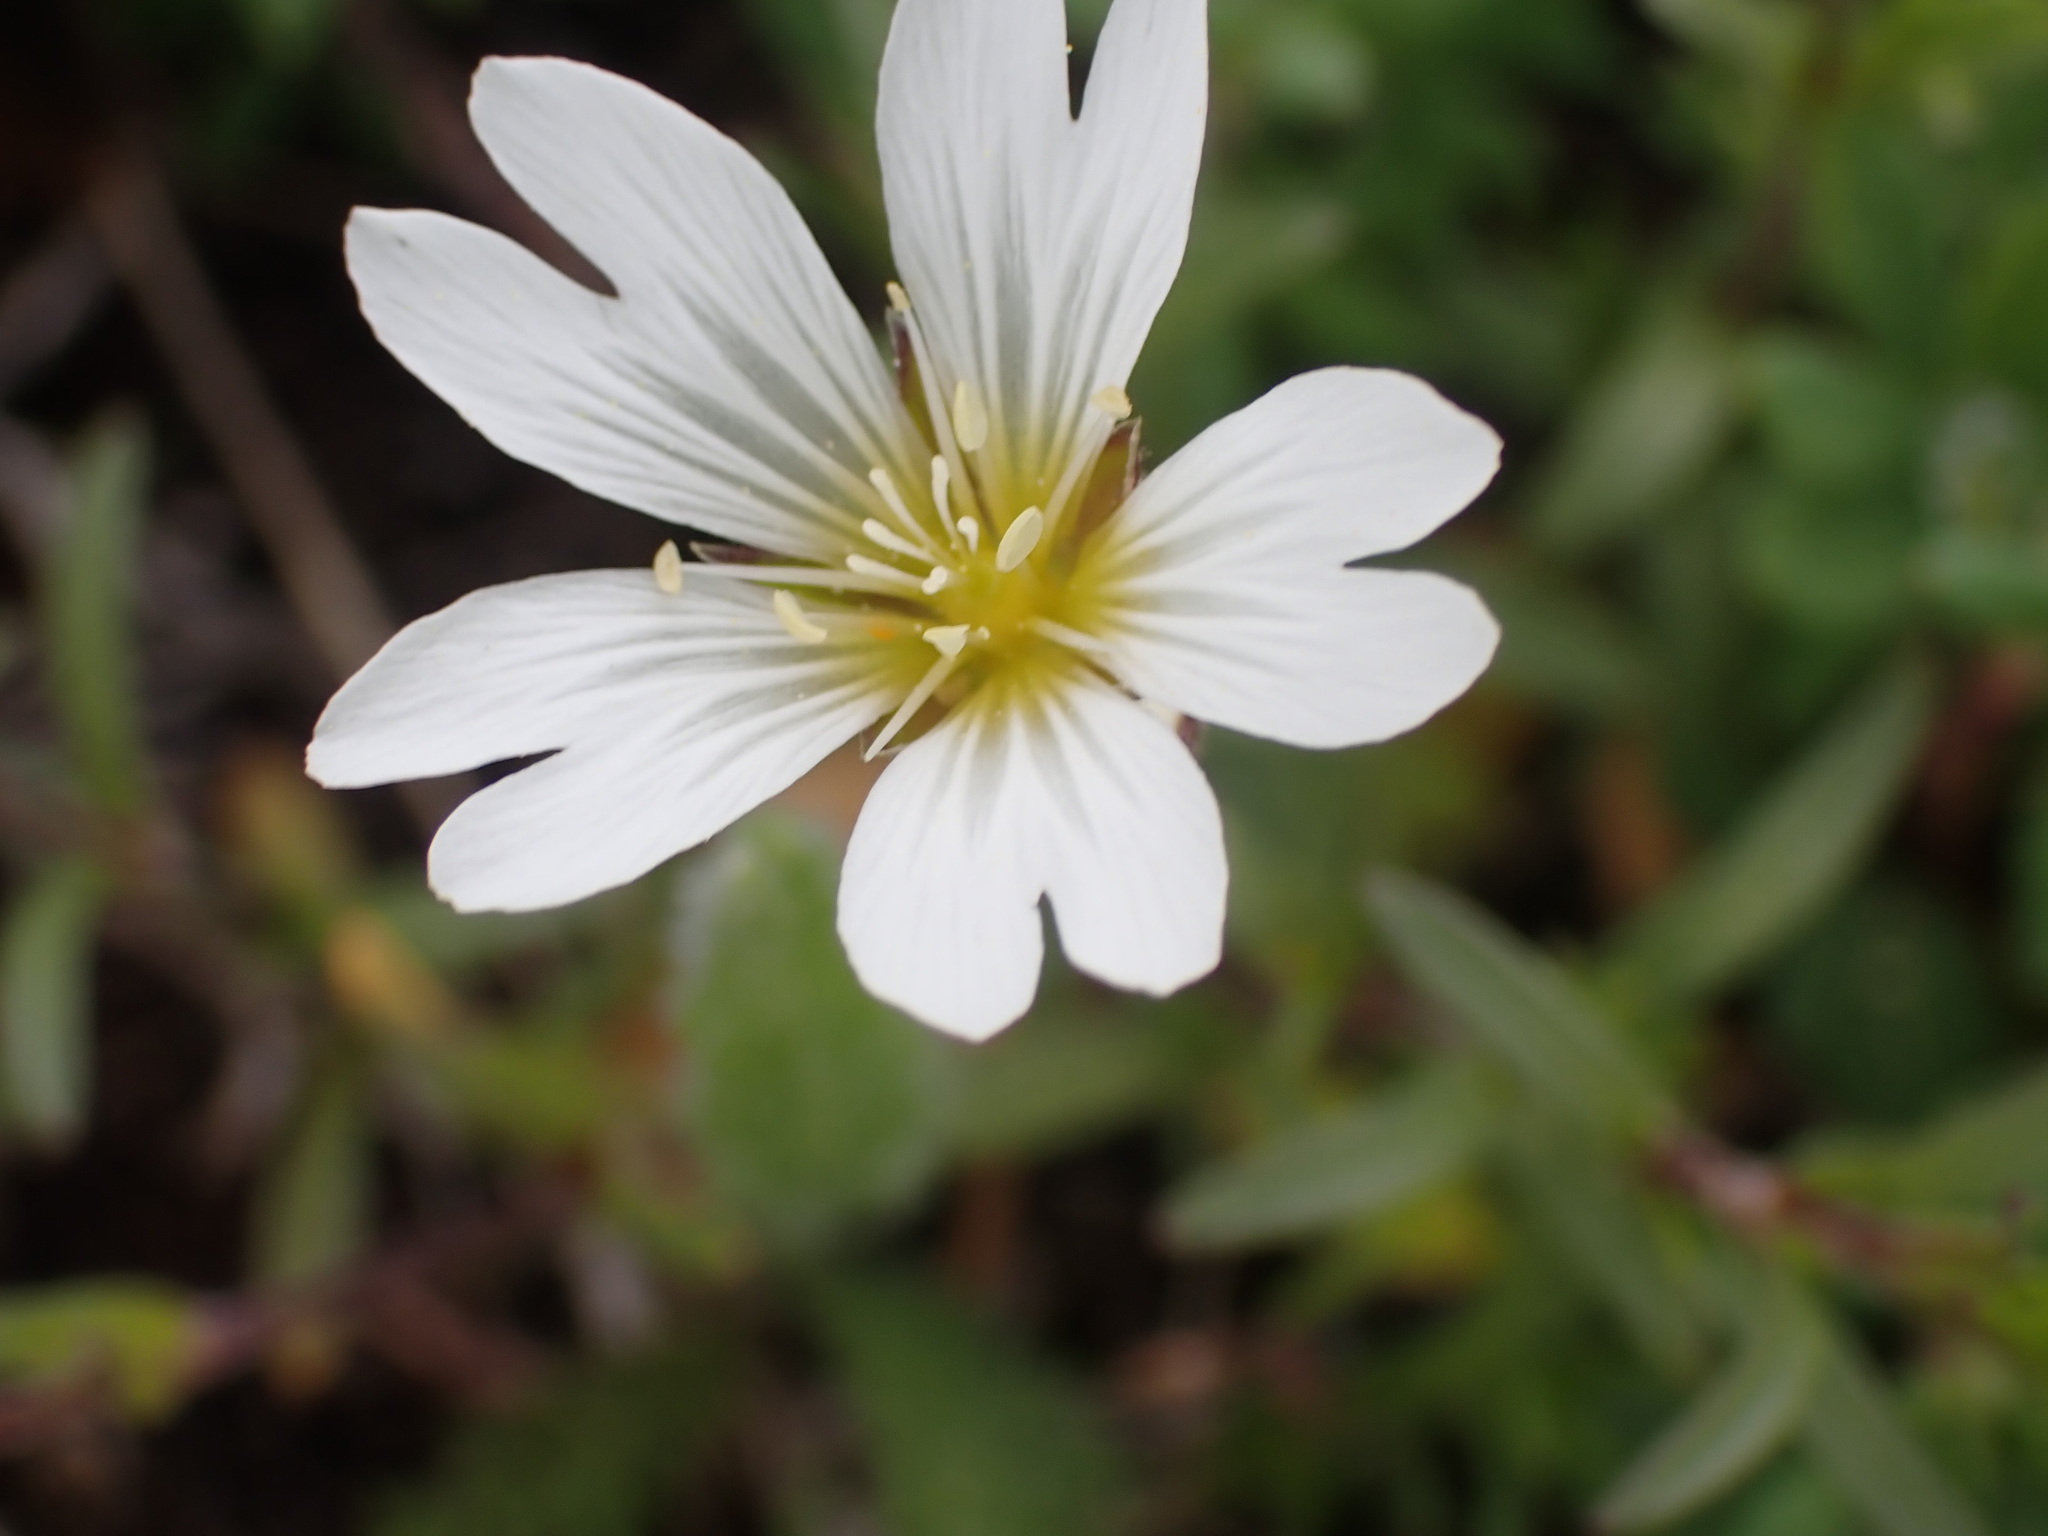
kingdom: Plantae
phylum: Tracheophyta
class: Magnoliopsida
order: Caryophyllales
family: Caryophyllaceae
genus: Cerastium
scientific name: Cerastium arvense
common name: Field mouse-ear
